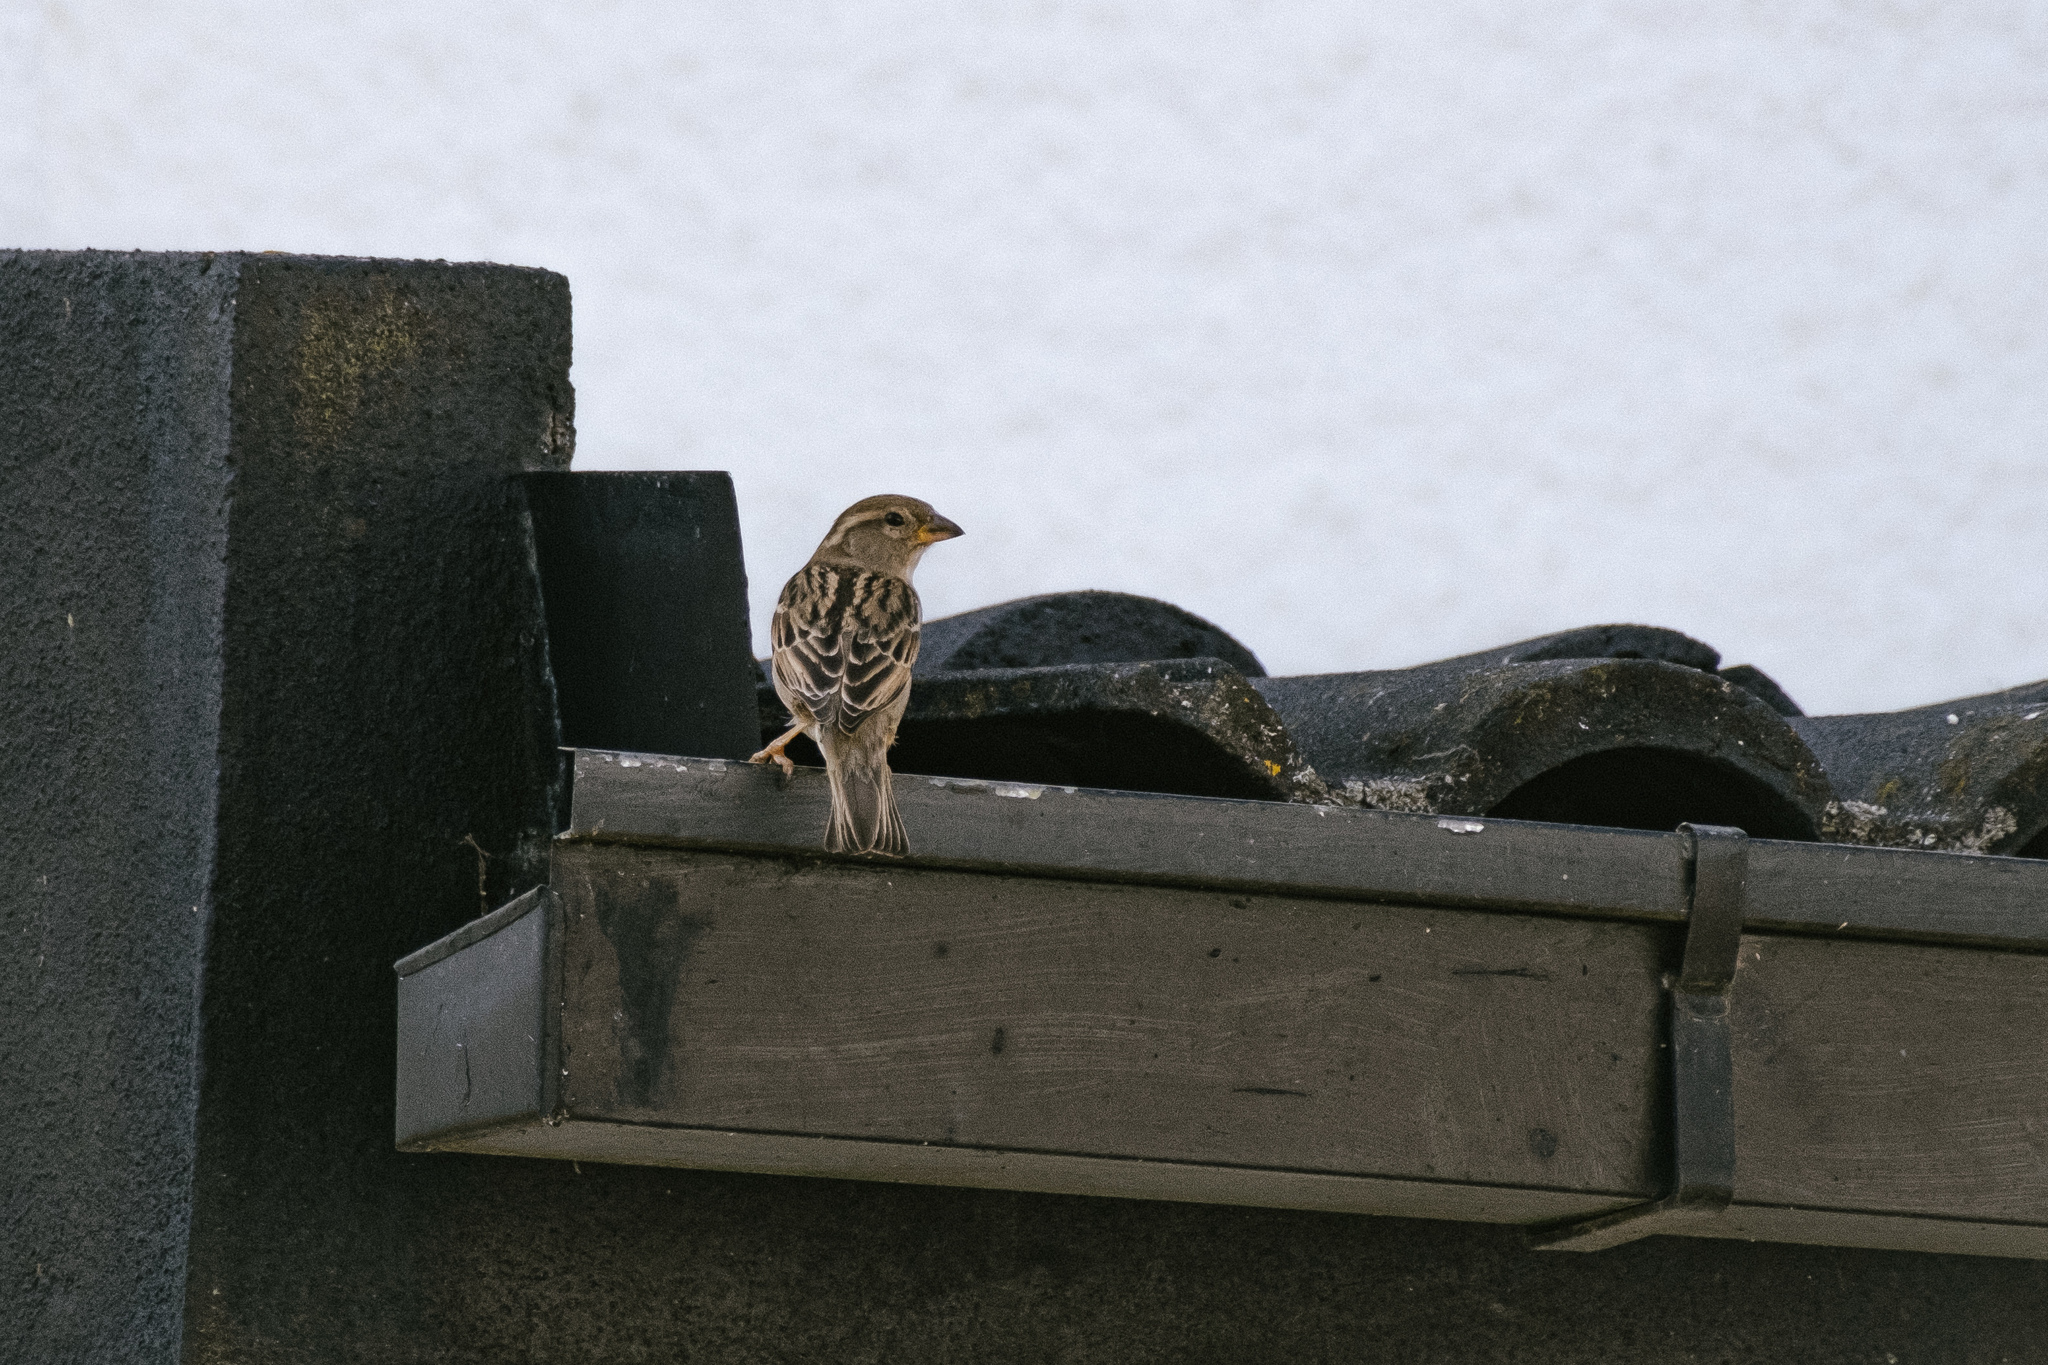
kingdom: Animalia
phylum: Chordata
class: Aves
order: Passeriformes
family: Passeridae
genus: Passer
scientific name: Passer domesticus
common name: House sparrow
